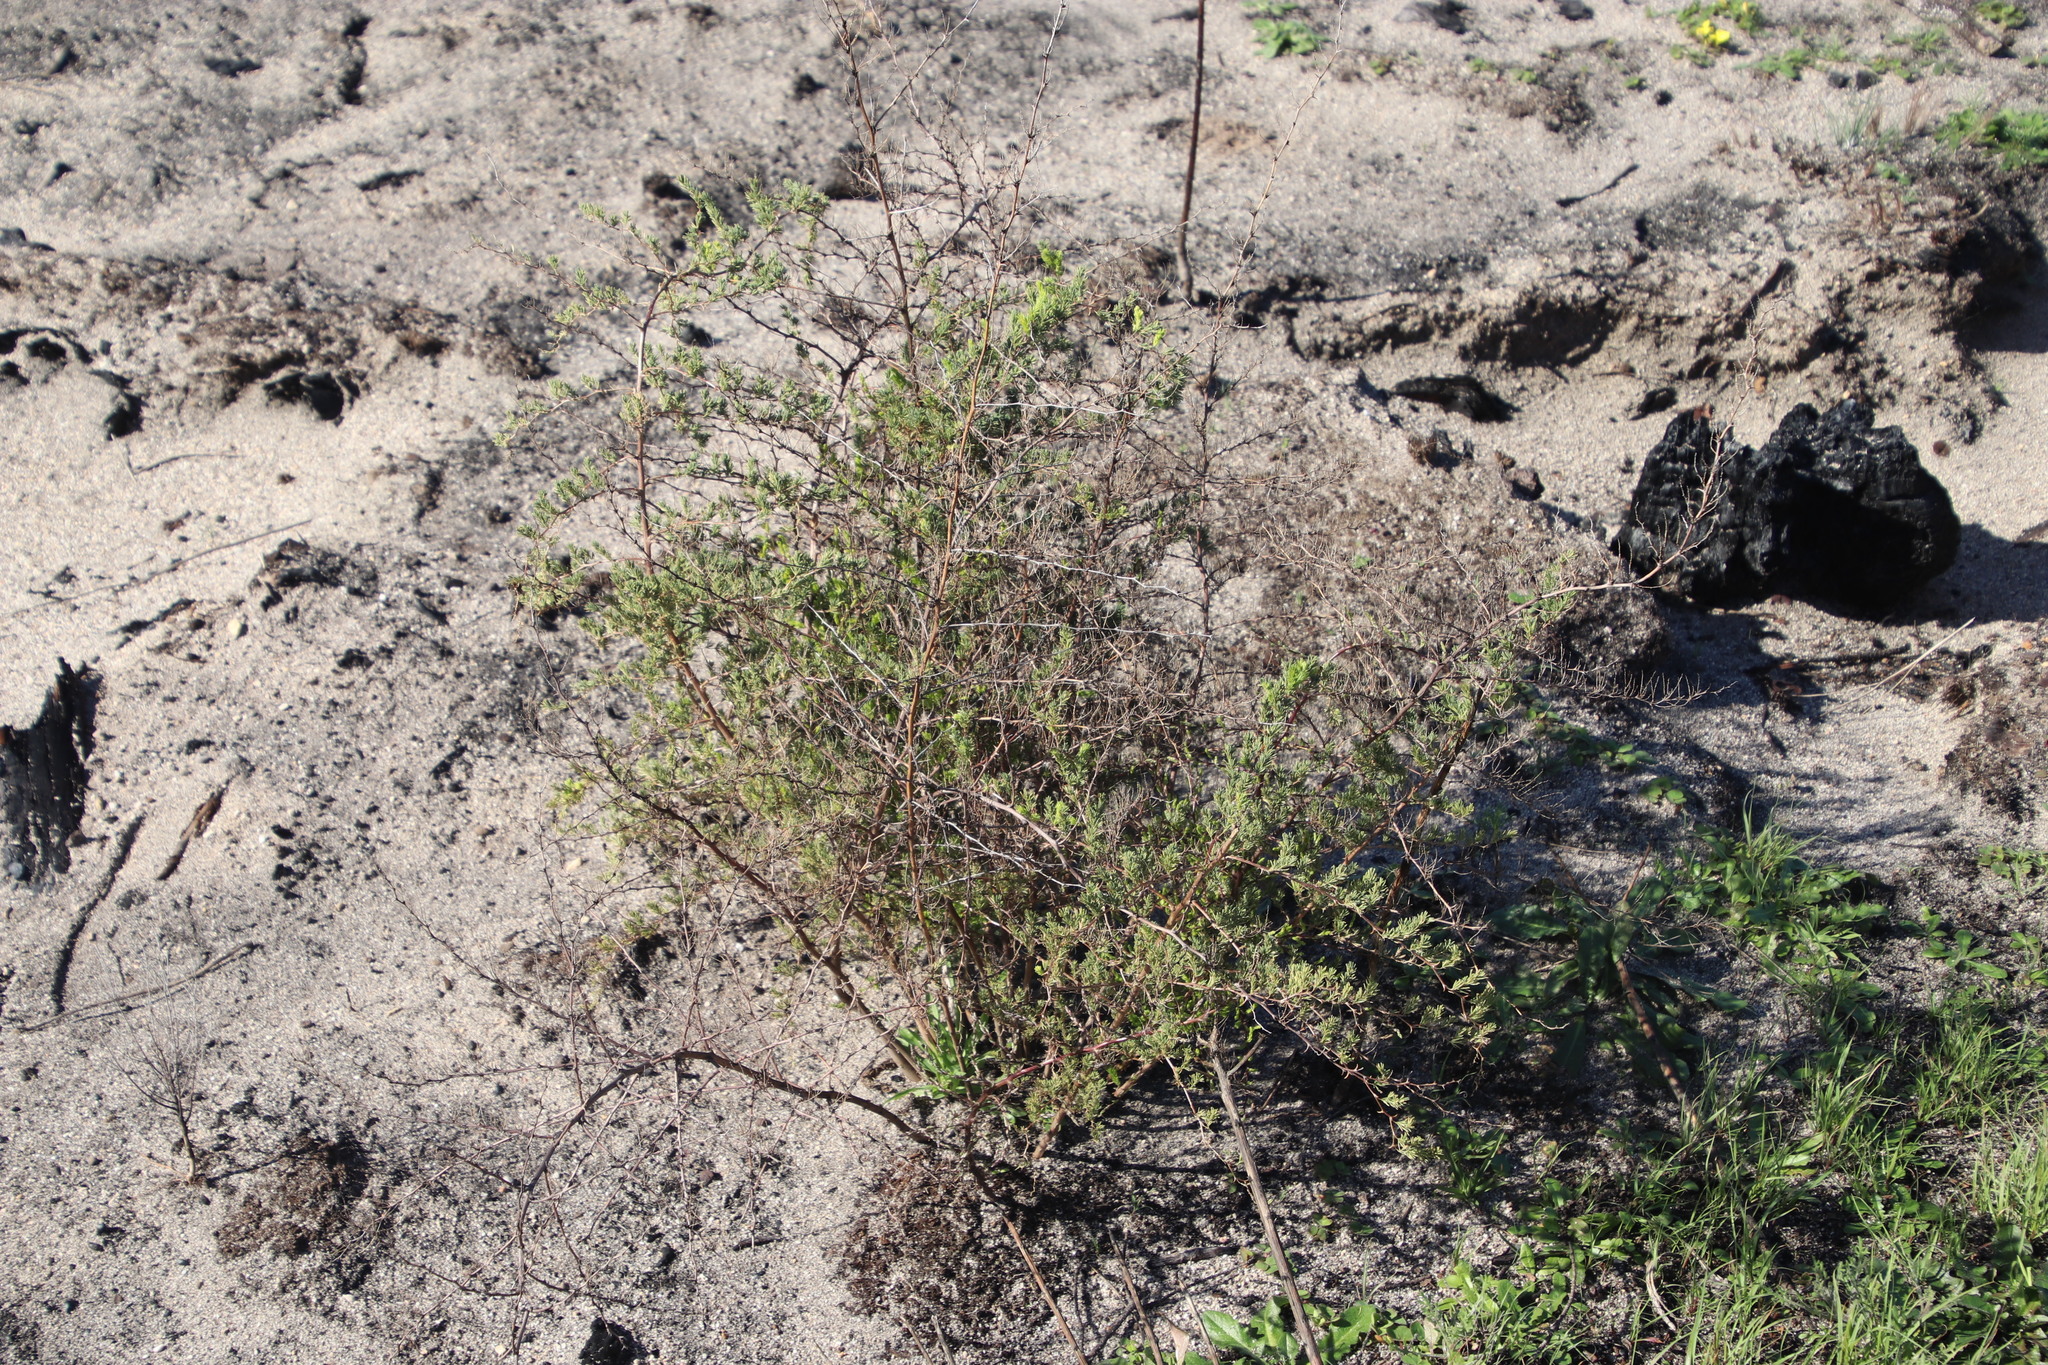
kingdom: Plantae
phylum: Tracheophyta
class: Liliopsida
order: Asparagales
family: Asparagaceae
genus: Asparagus
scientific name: Asparagus rubicundus
